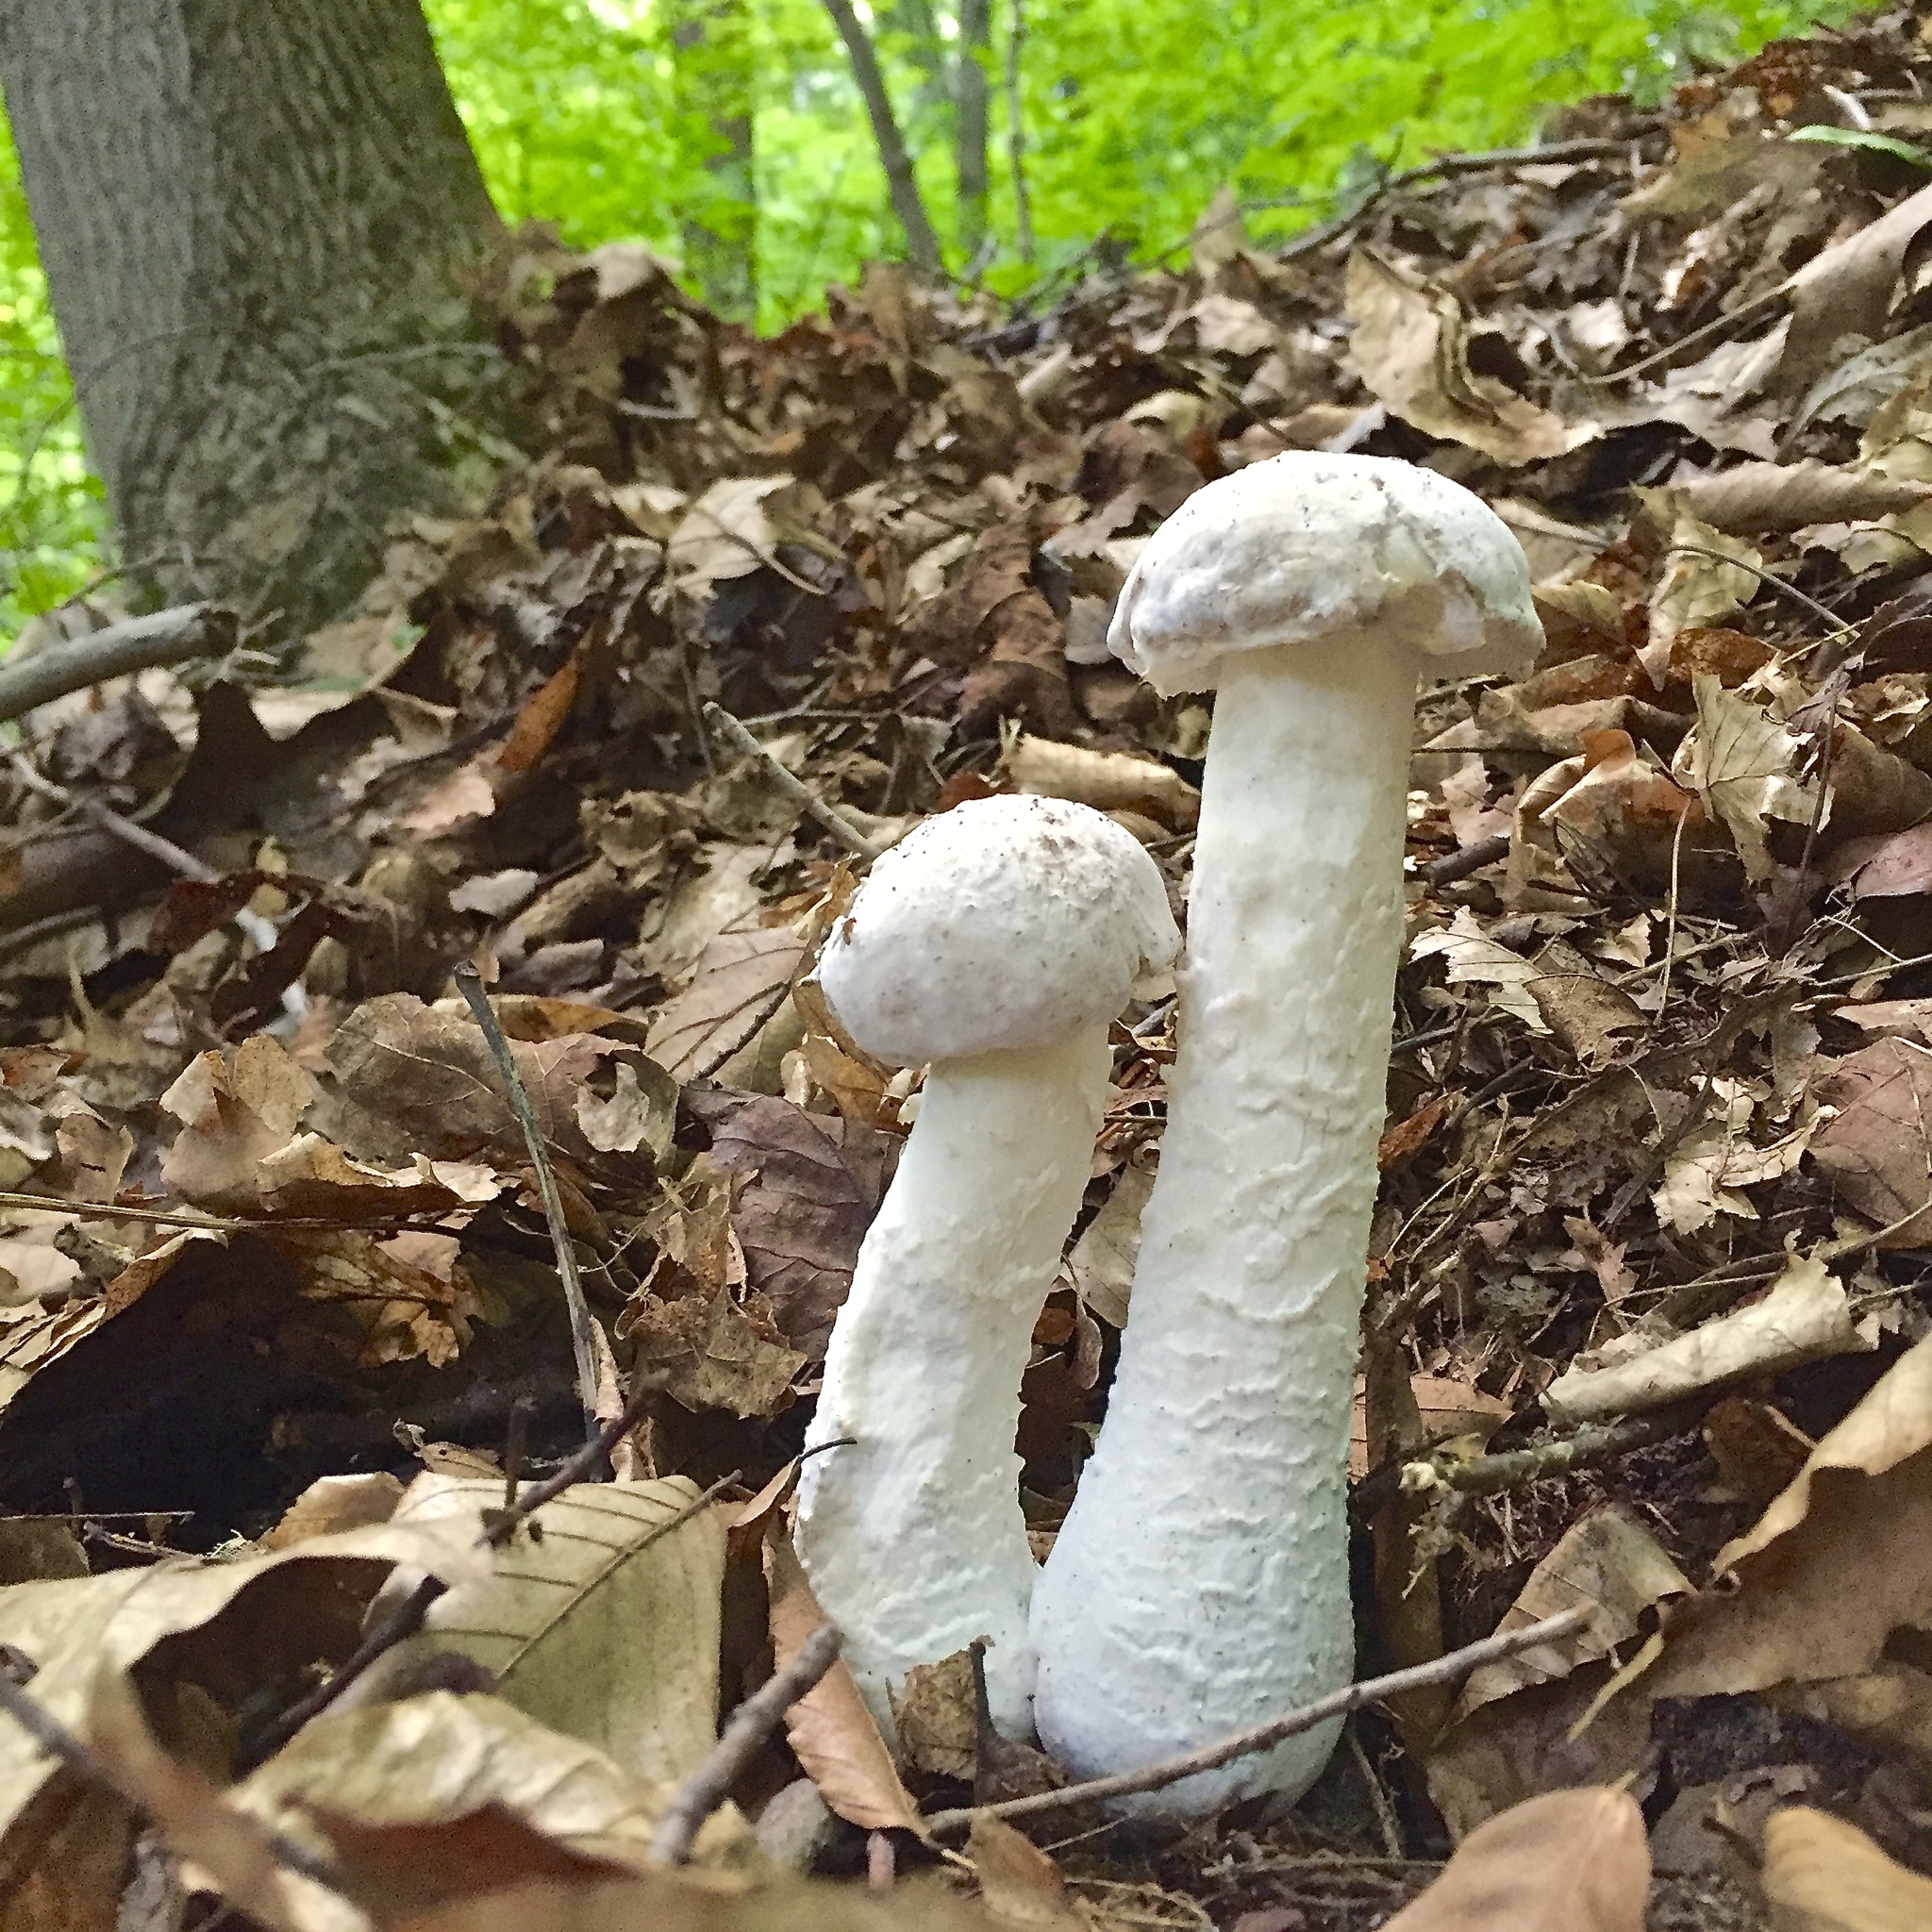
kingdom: Fungi
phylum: Ascomycota
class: Sordariomycetes
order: Hypocreales
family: Hypocreaceae
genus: Hypomyces
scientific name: Hypomyces hyalinus
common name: Amanita mold
